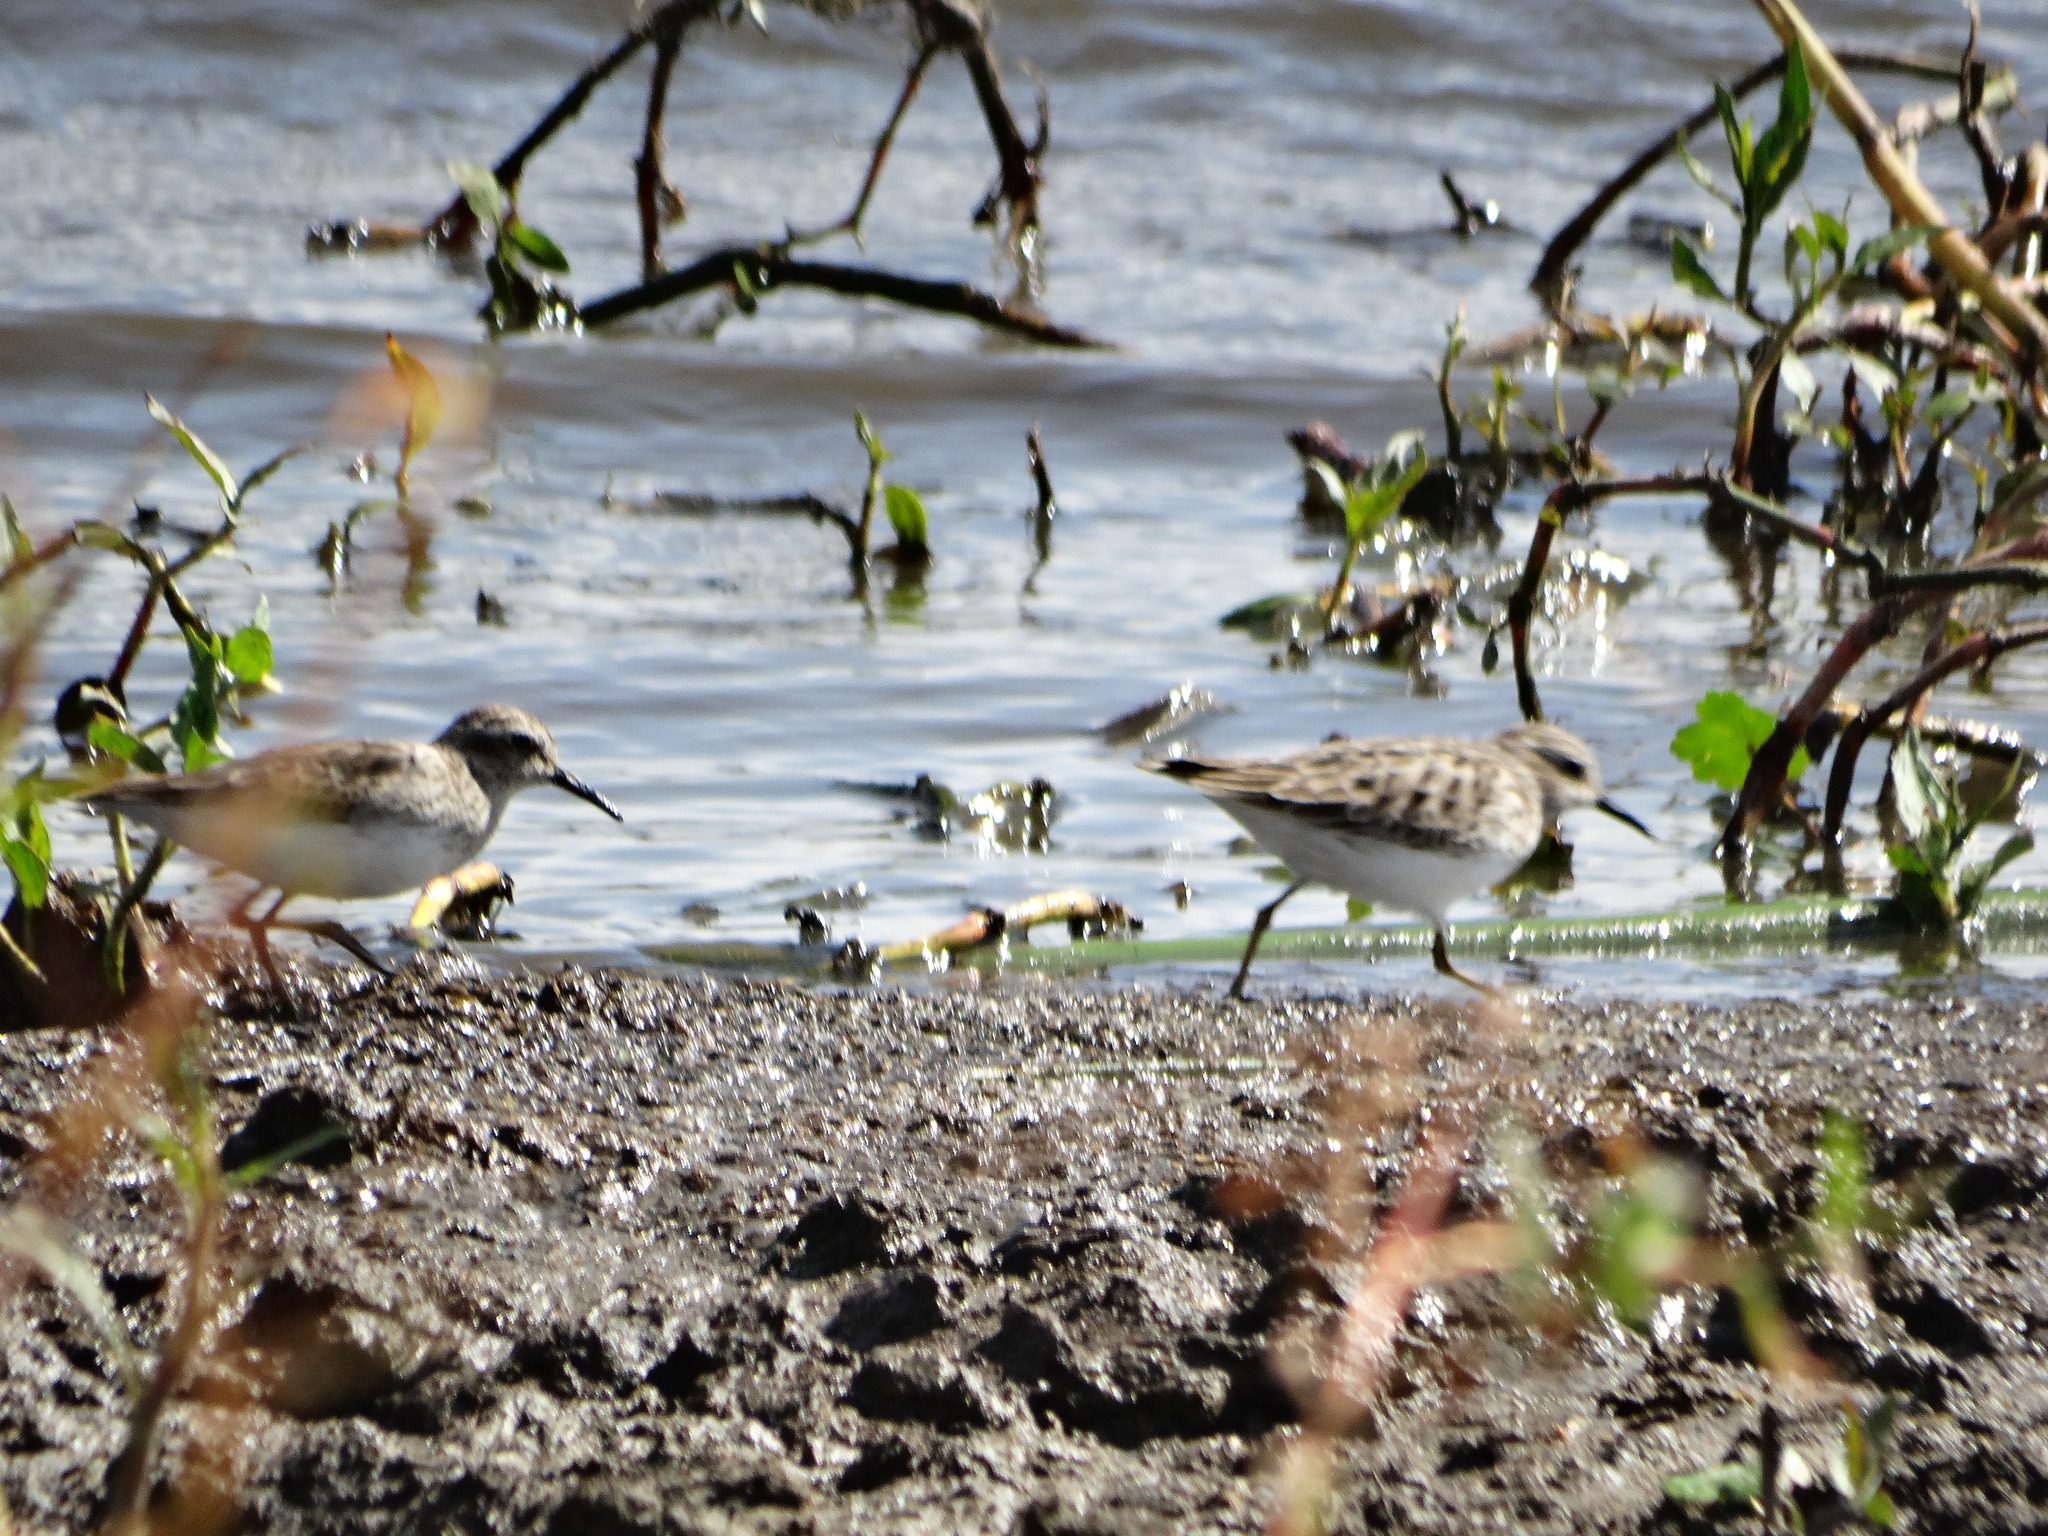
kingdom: Animalia
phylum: Chordata
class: Aves
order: Charadriiformes
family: Scolopacidae
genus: Calidris
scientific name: Calidris minutilla
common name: Least sandpiper
